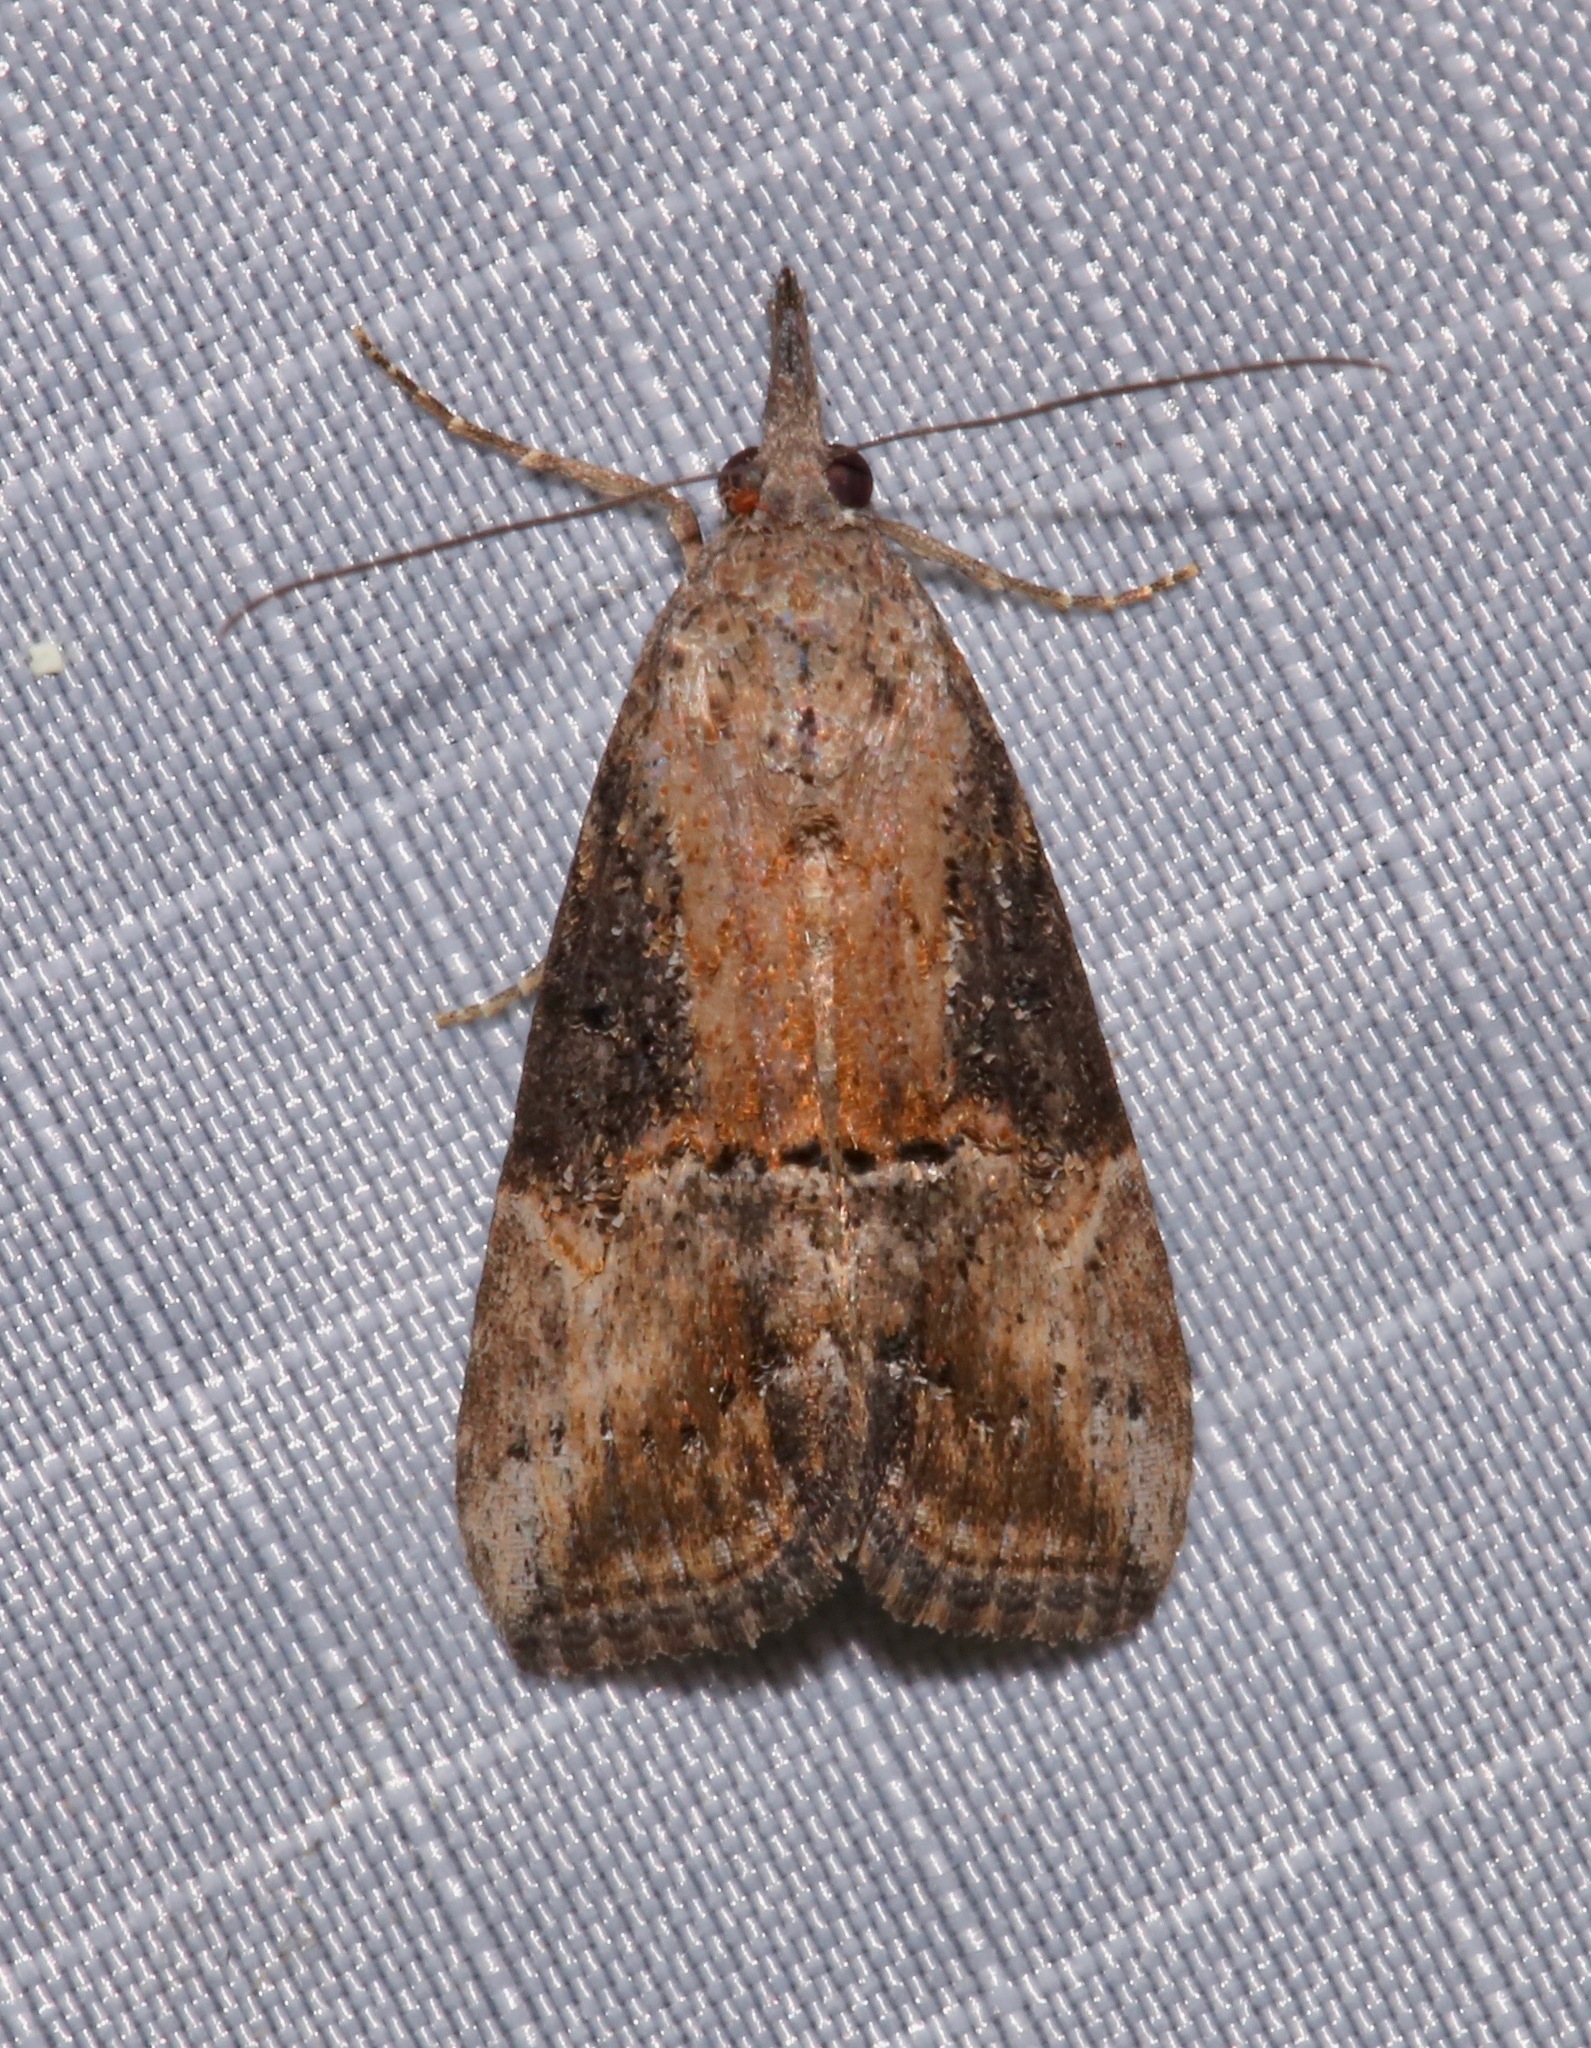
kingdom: Animalia
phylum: Arthropoda
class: Insecta
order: Lepidoptera
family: Erebidae
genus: Hypena
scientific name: Hypena scabra
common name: Green cloverworm
